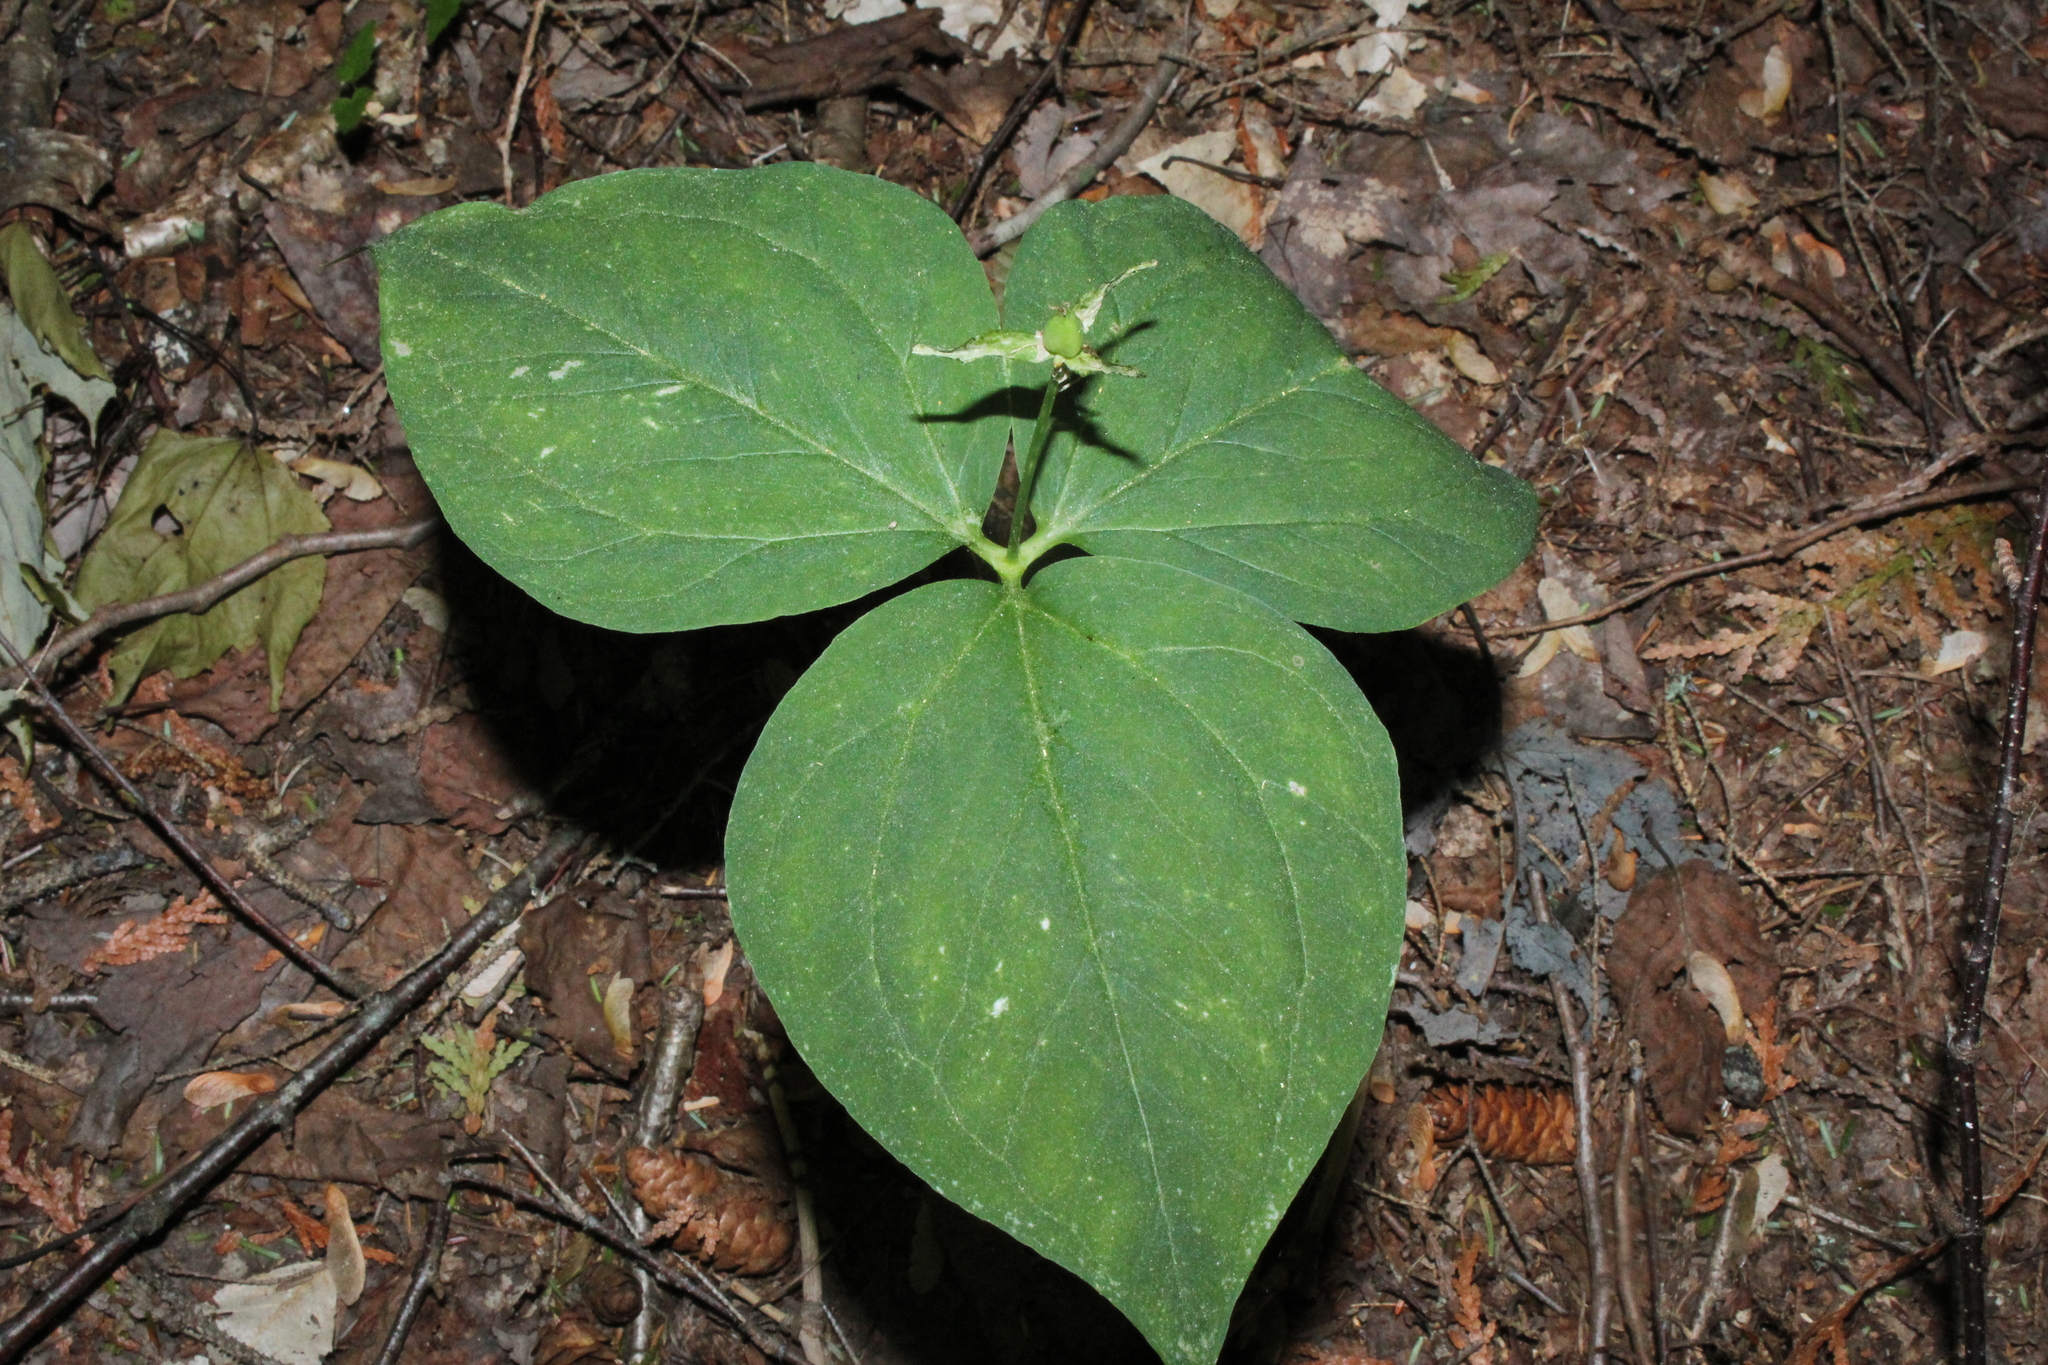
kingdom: Plantae
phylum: Tracheophyta
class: Liliopsida
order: Liliales
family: Melanthiaceae
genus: Trillium
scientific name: Trillium undulatum
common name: Paint trillium
